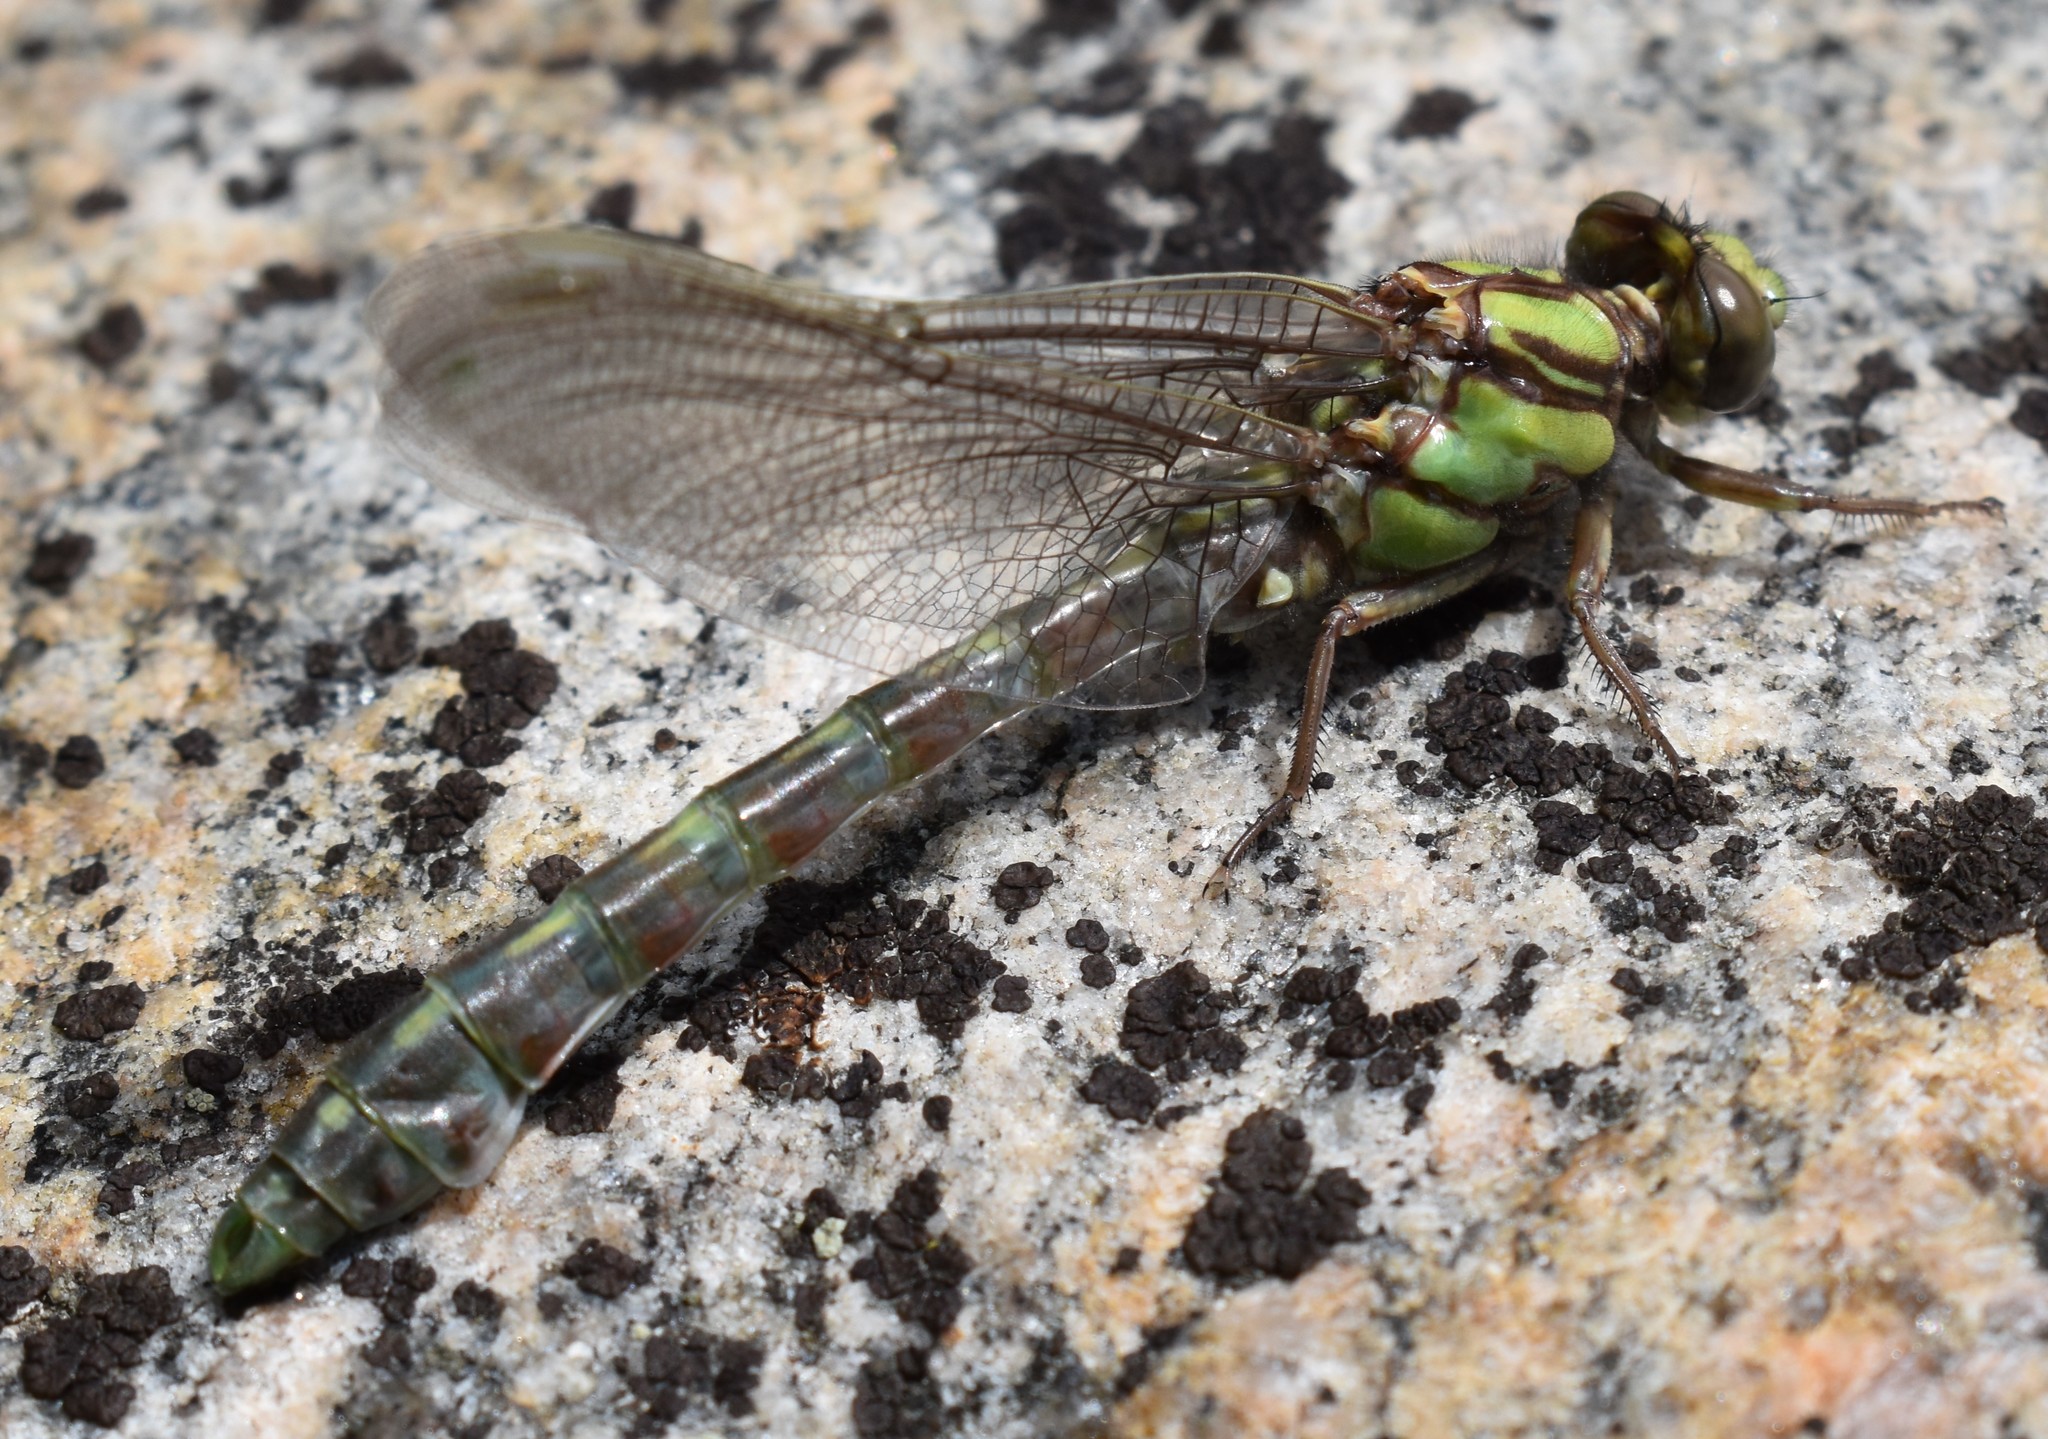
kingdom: Animalia
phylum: Arthropoda
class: Insecta
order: Odonata
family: Gomphidae
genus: Ophiogomphus
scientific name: Ophiogomphus colubrinus
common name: Boreal snaketail
